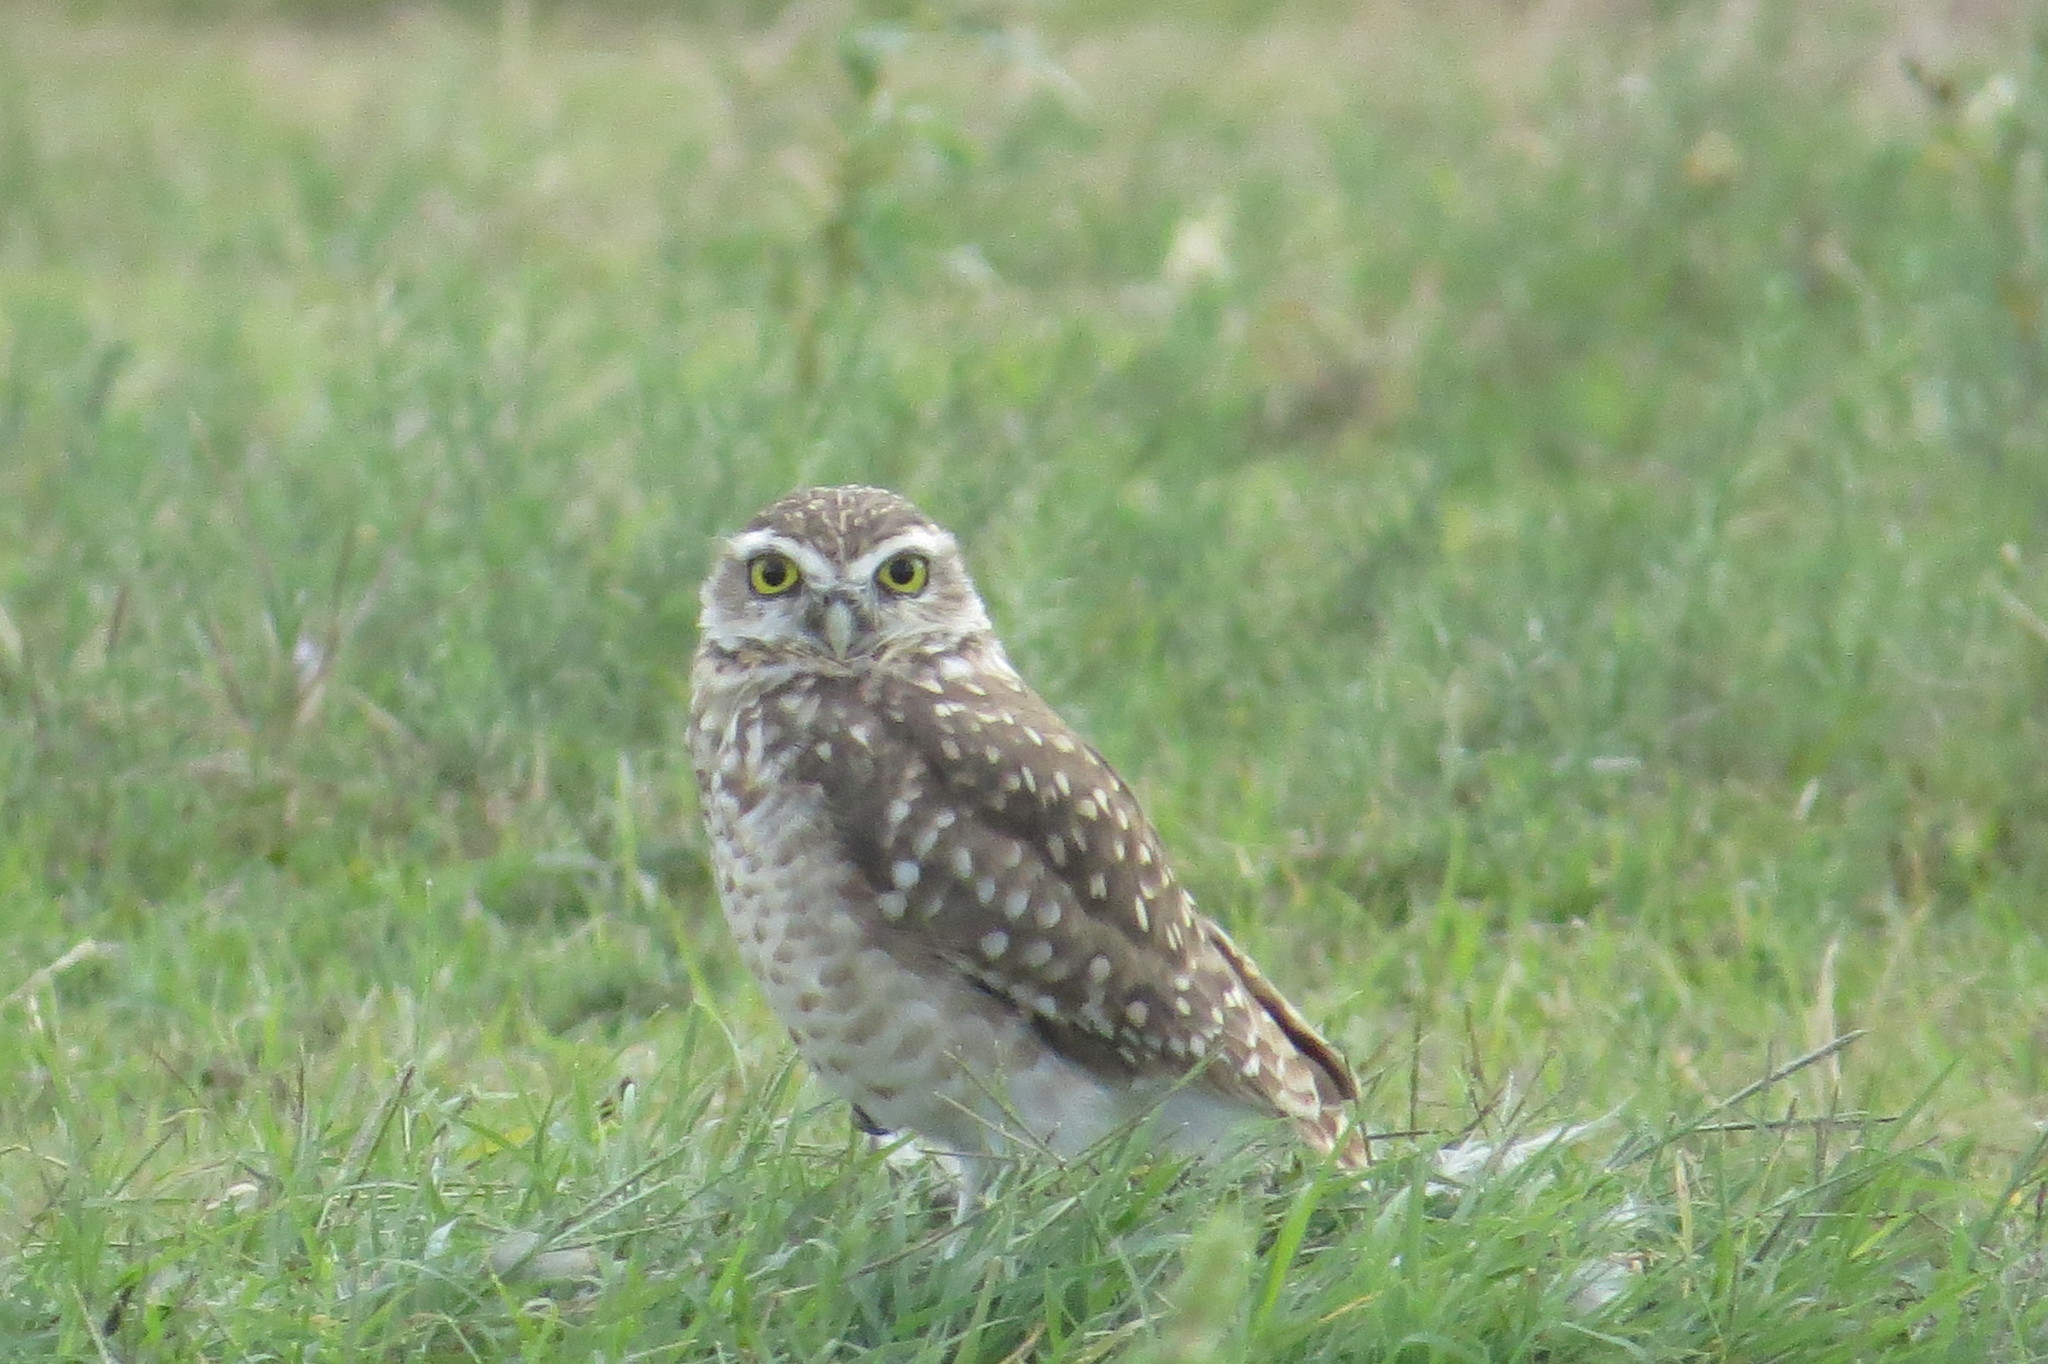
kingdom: Animalia
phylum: Chordata
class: Aves
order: Strigiformes
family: Strigidae
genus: Athene
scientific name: Athene cunicularia
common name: Burrowing owl
